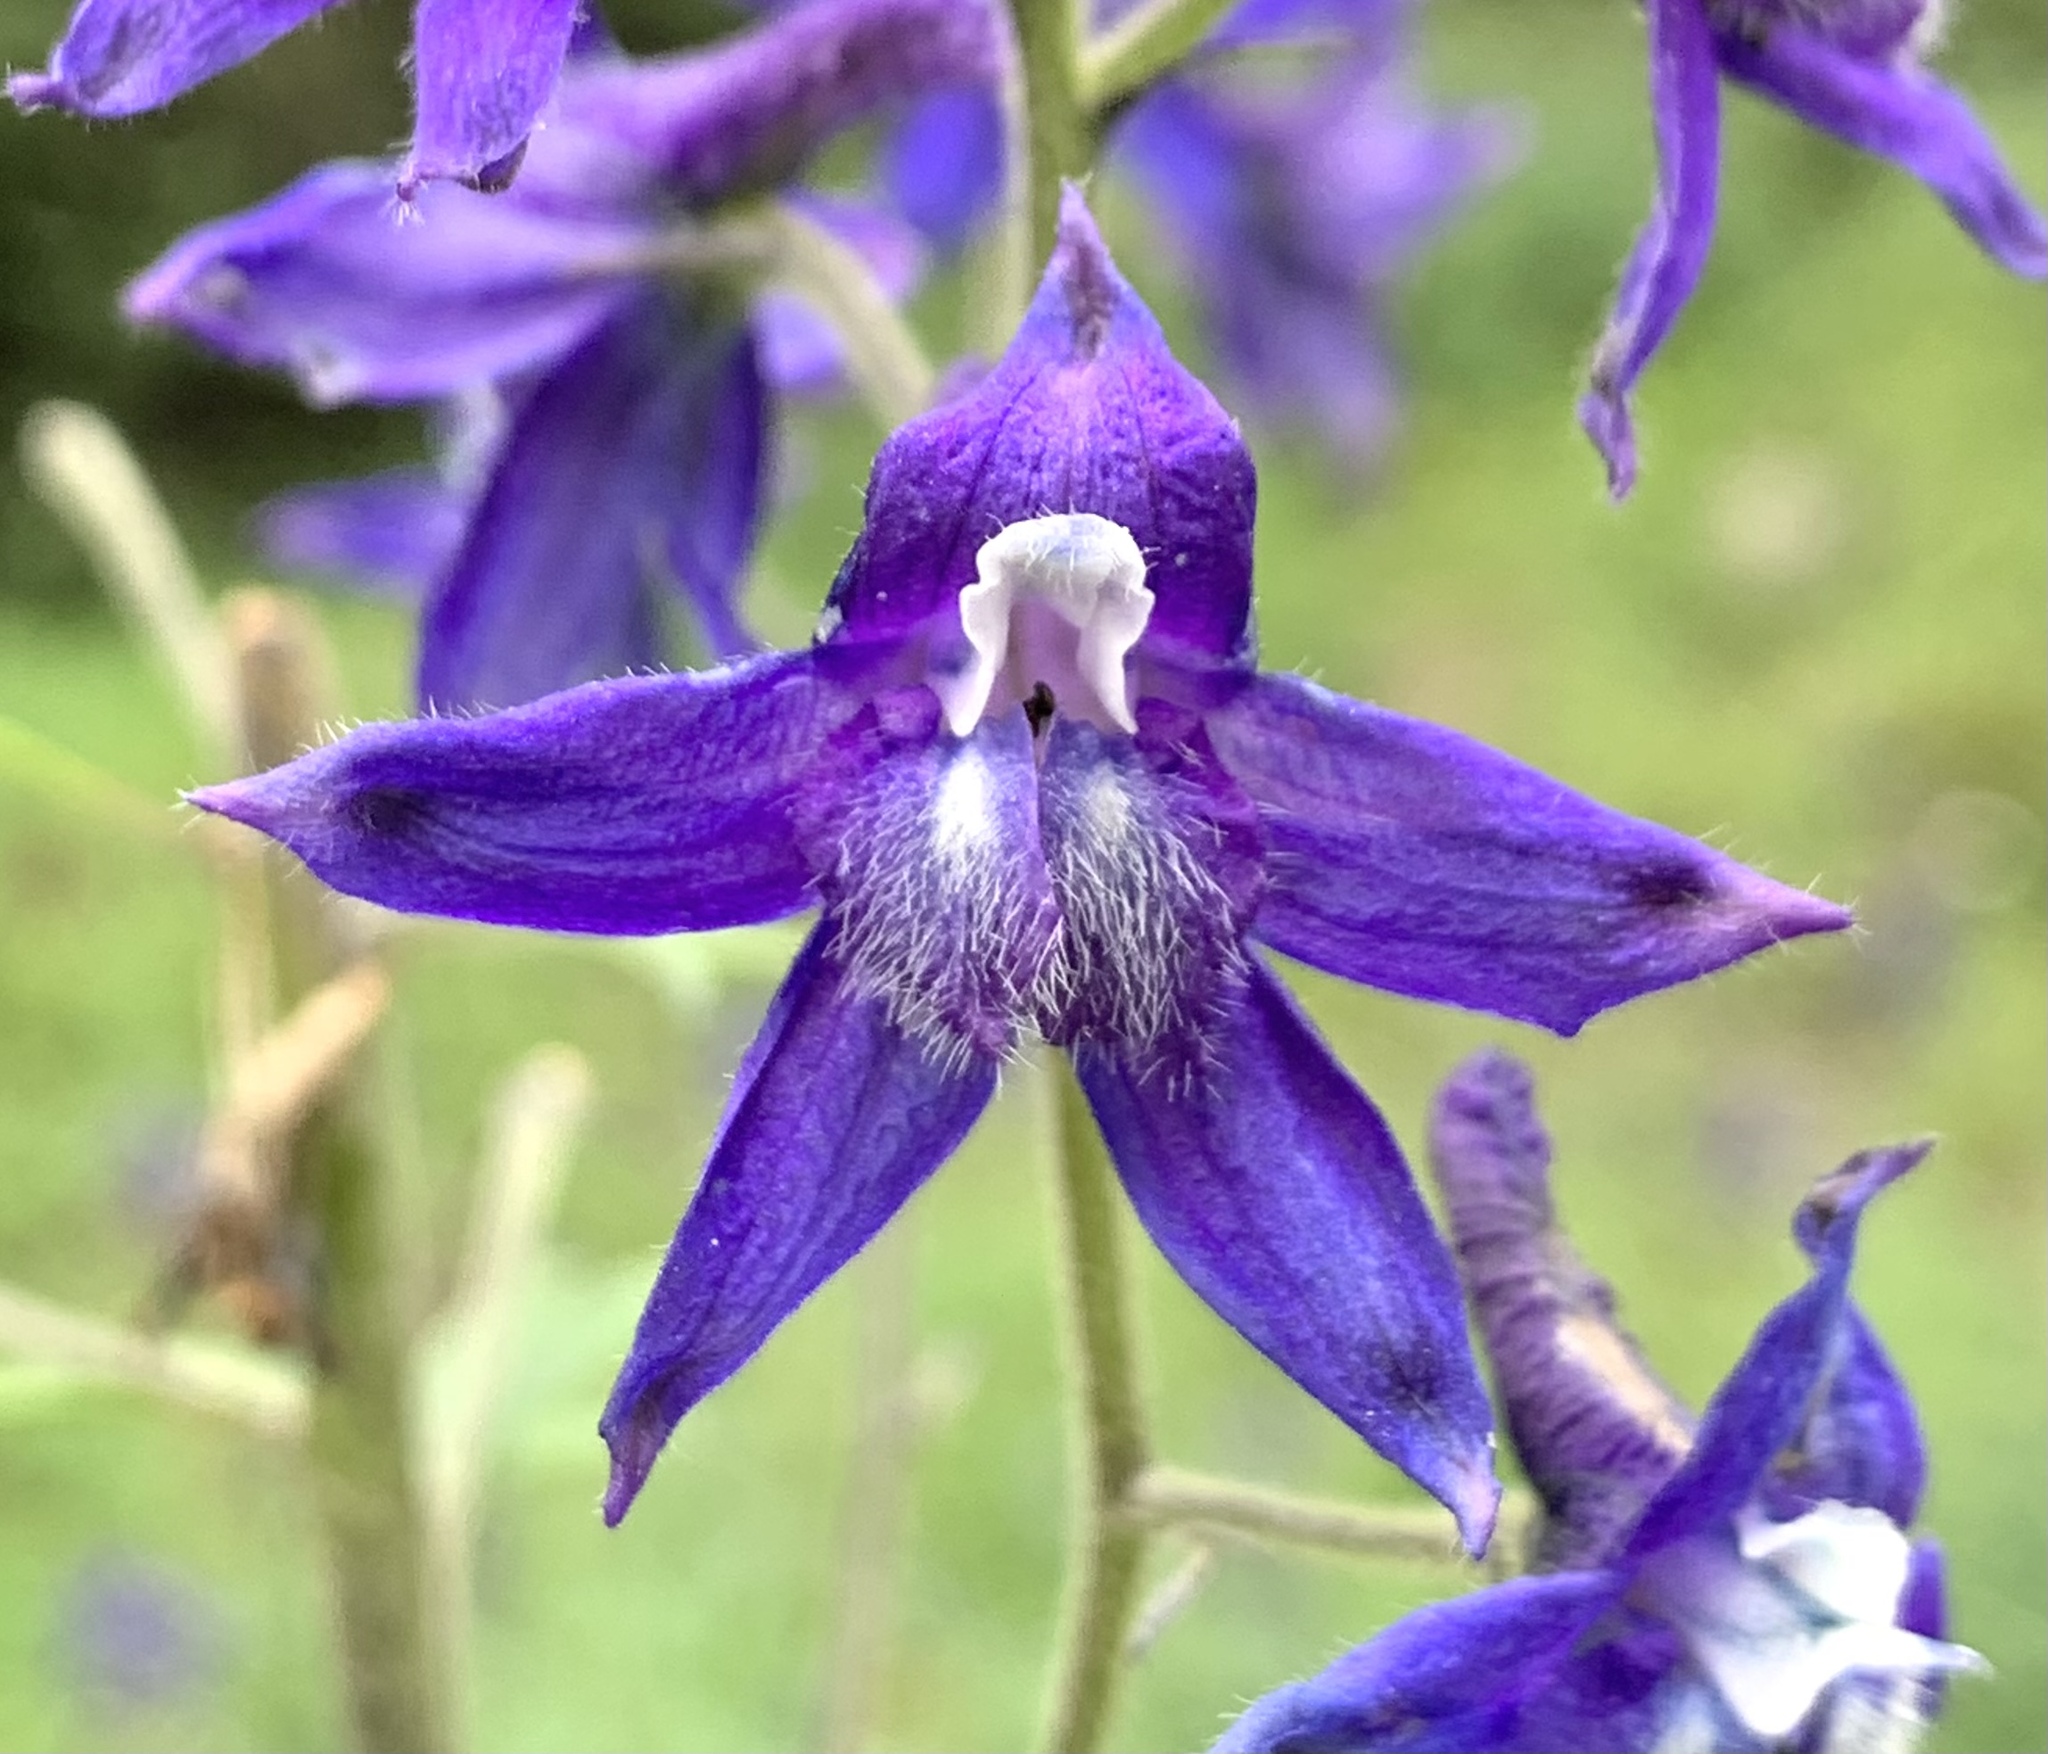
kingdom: Plantae
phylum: Tracheophyta
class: Magnoliopsida
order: Ranunculales
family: Ranunculaceae
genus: Delphinium
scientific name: Delphinium barbeyi
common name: Subalpine larkspur
